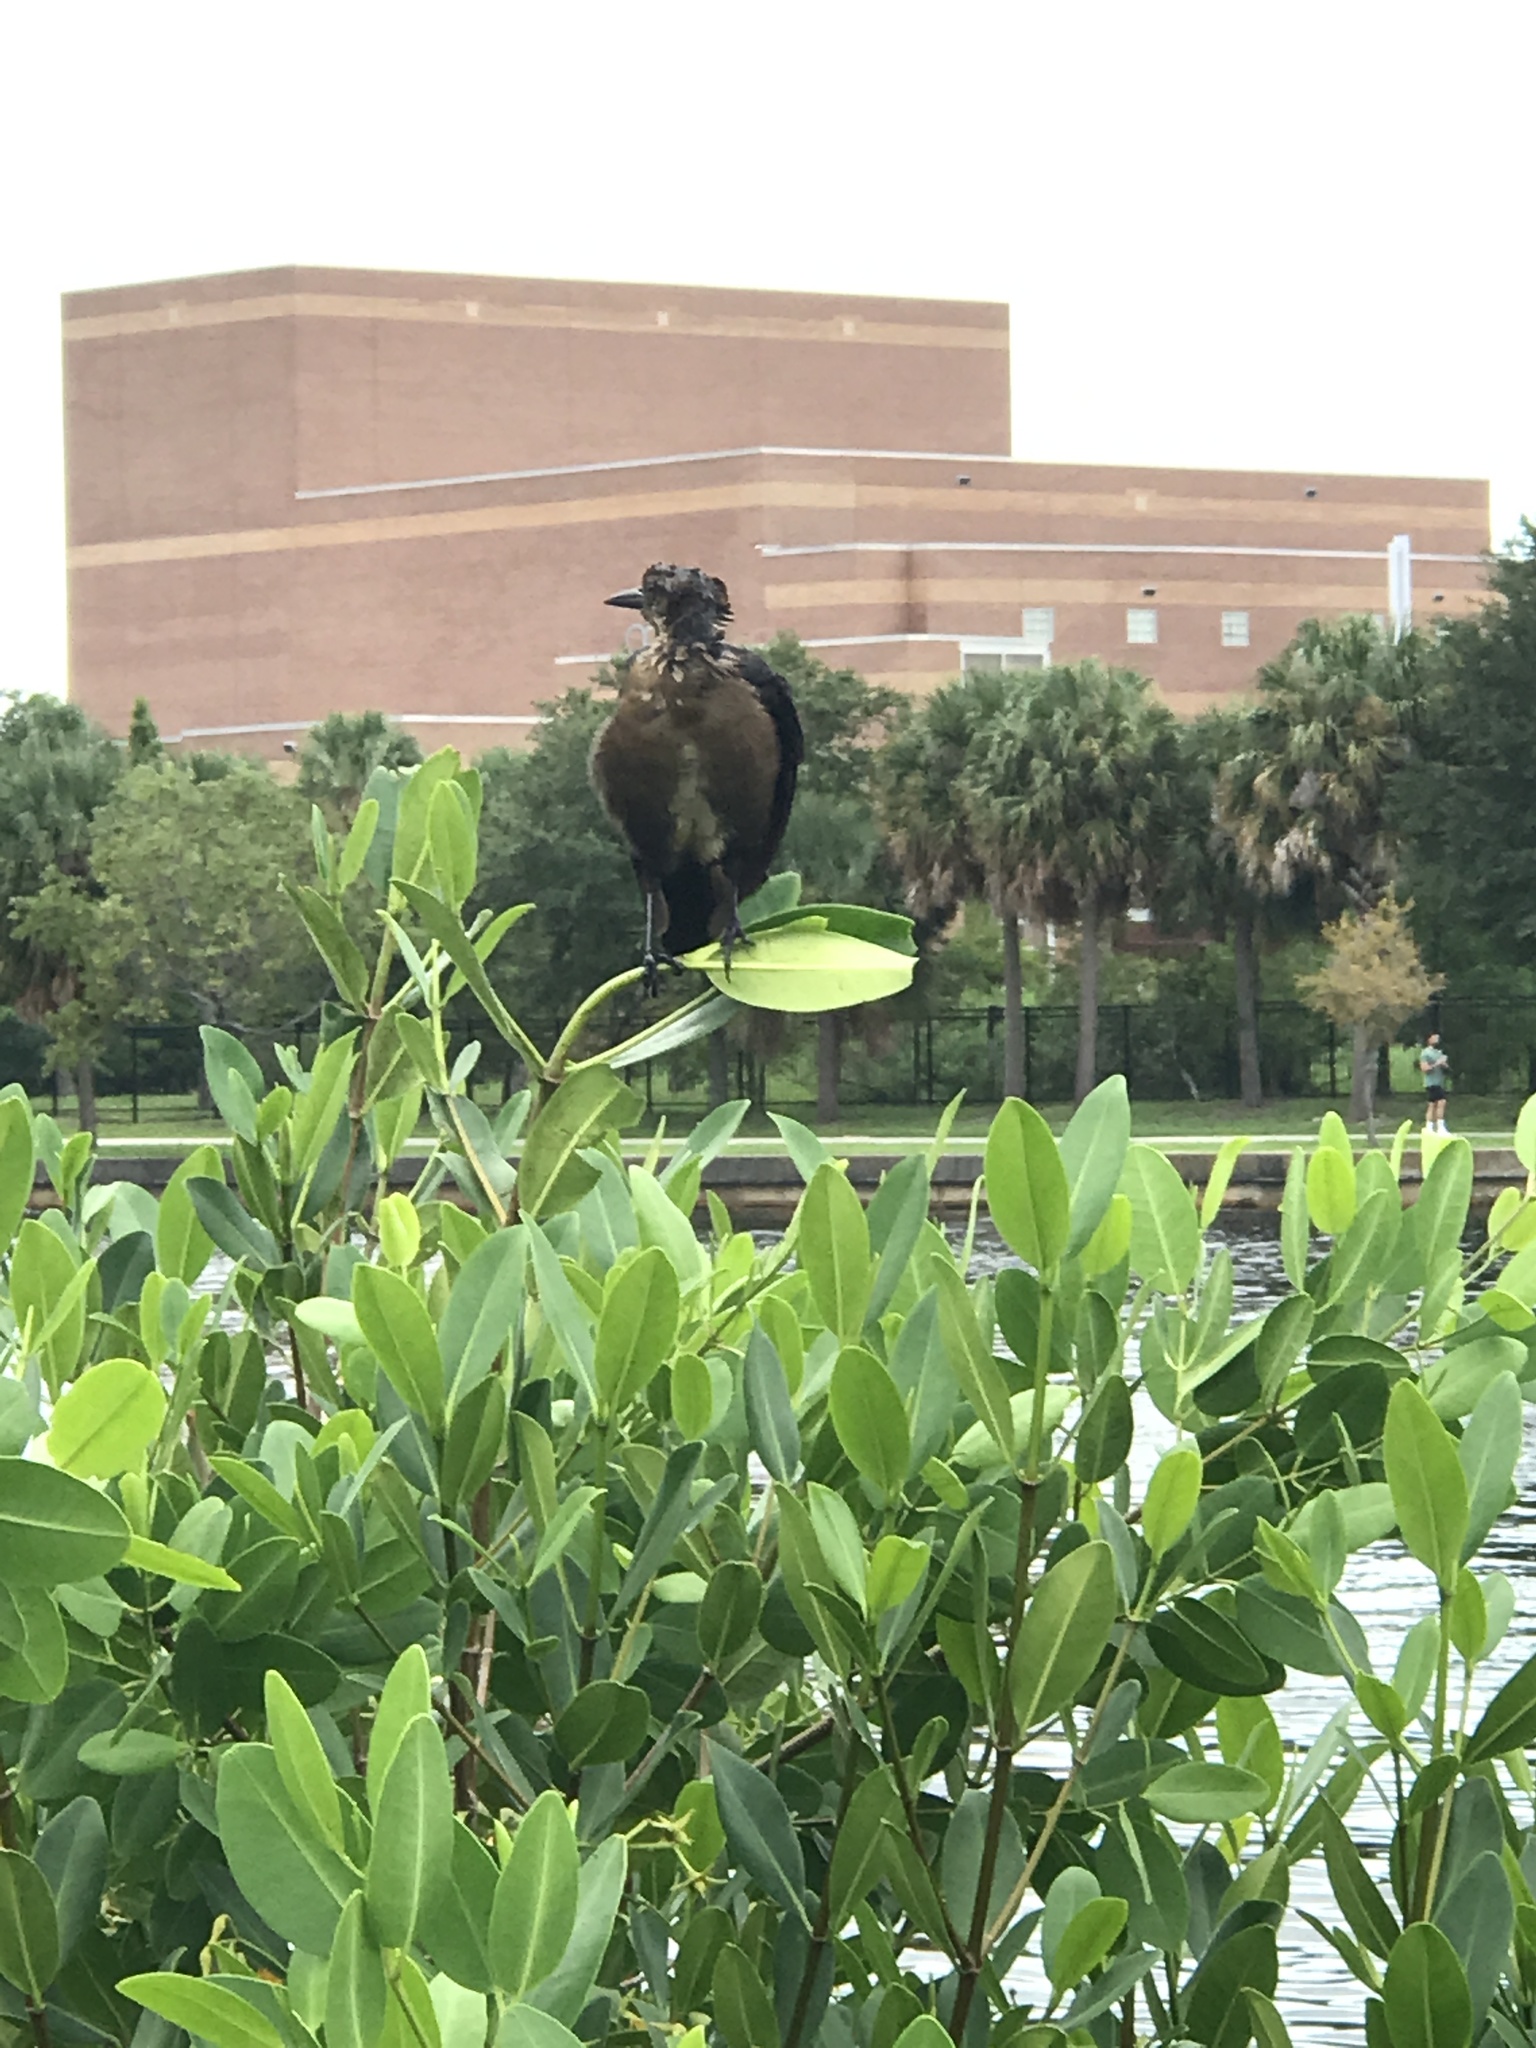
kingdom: Animalia
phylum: Chordata
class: Aves
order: Passeriformes
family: Icteridae
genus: Quiscalus
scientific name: Quiscalus major
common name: Boat-tailed grackle
